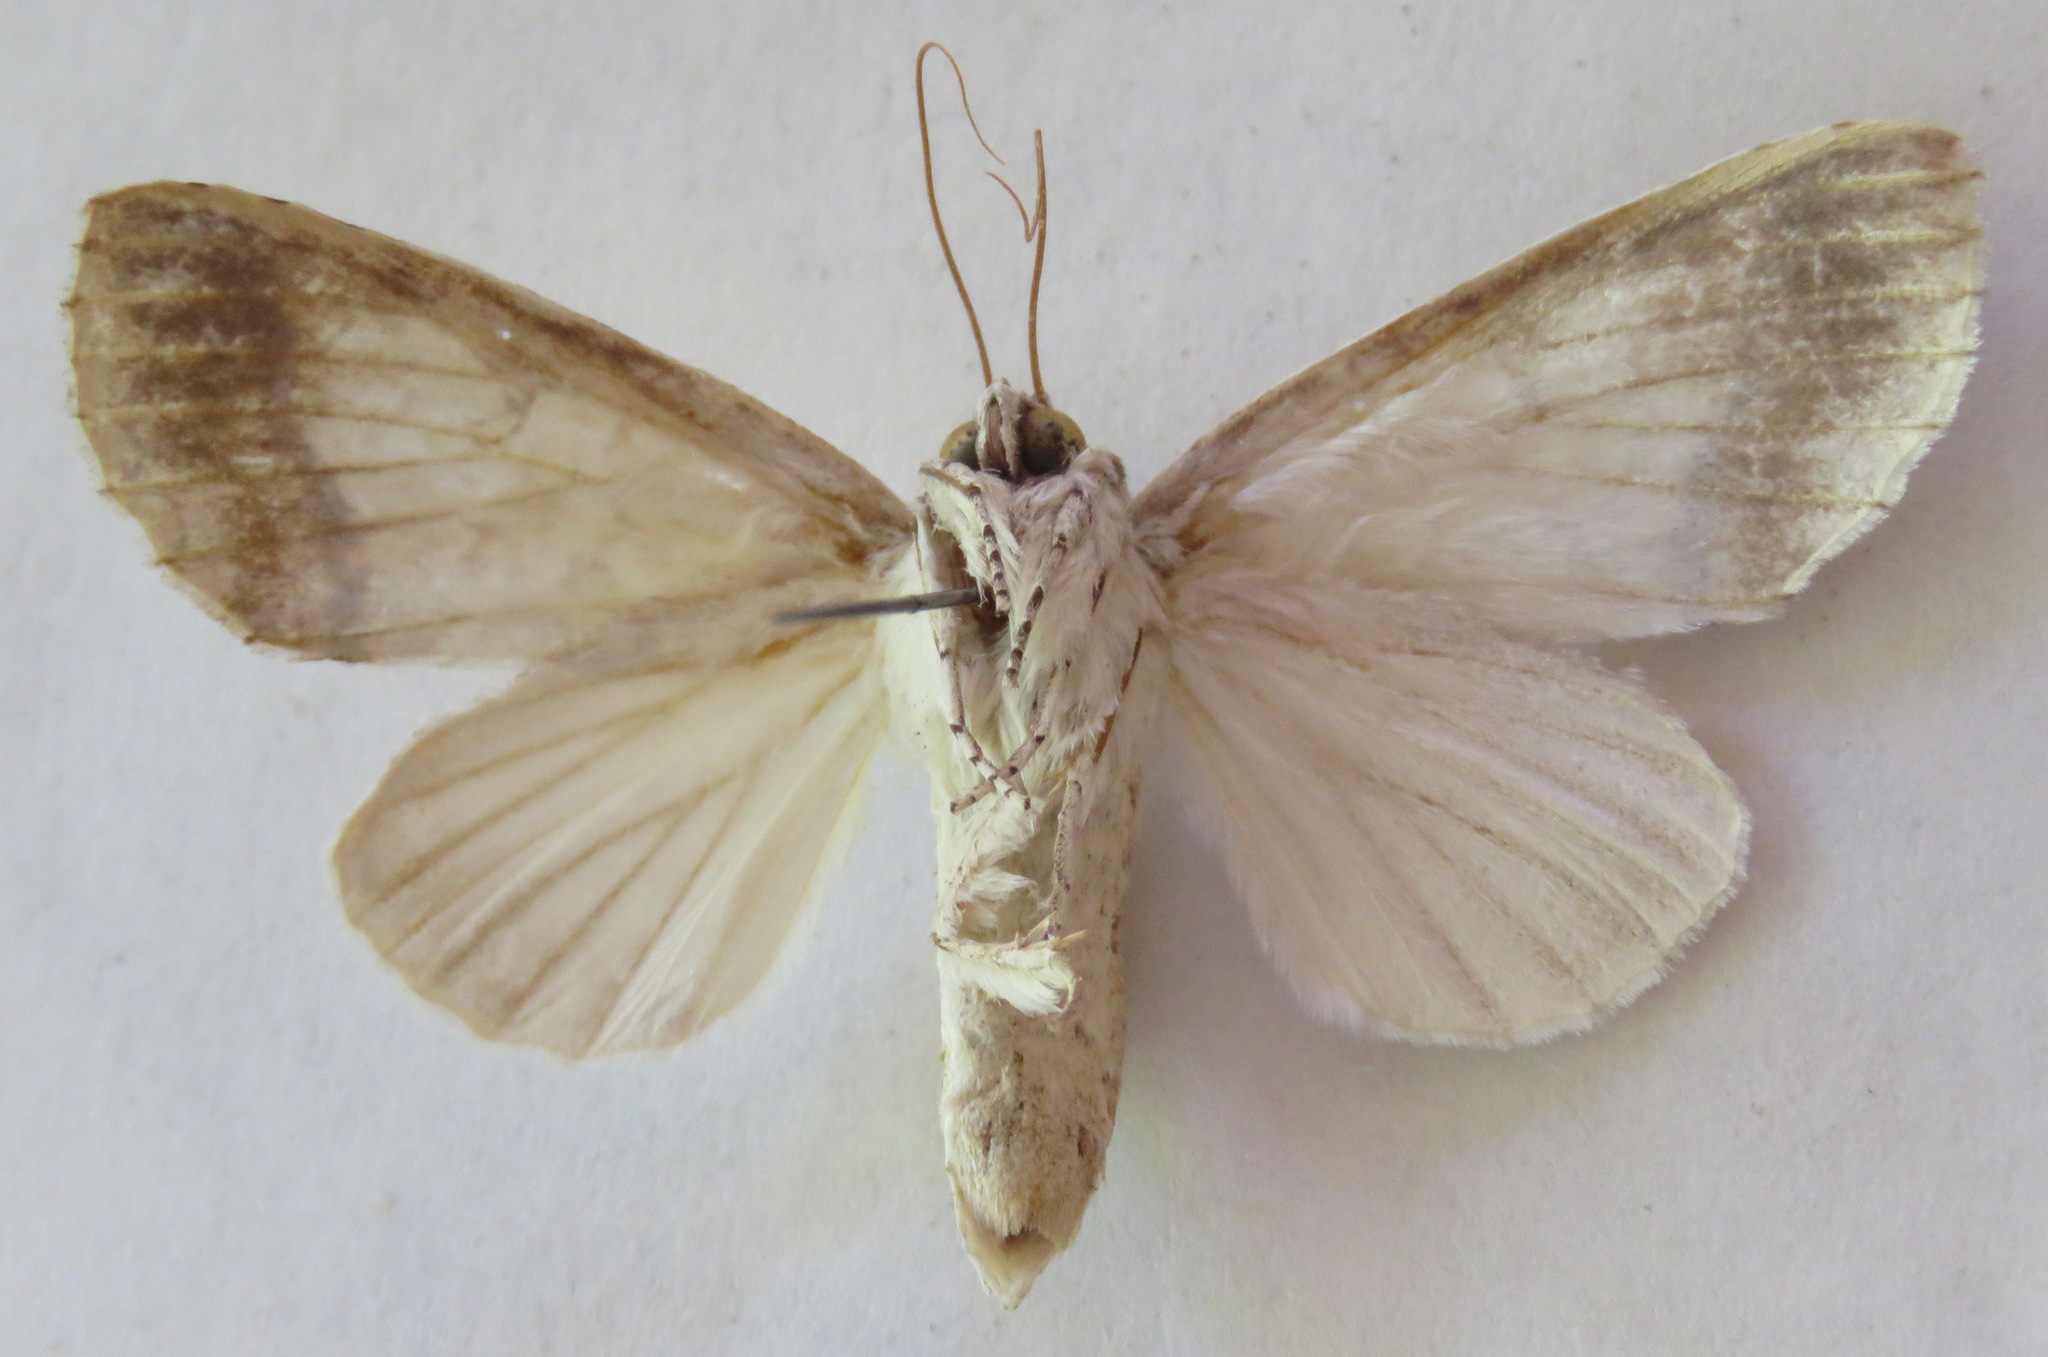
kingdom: Animalia
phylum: Arthropoda
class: Insecta
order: Lepidoptera
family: Notodontidae
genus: Rifargia
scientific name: Rifargia lineata
